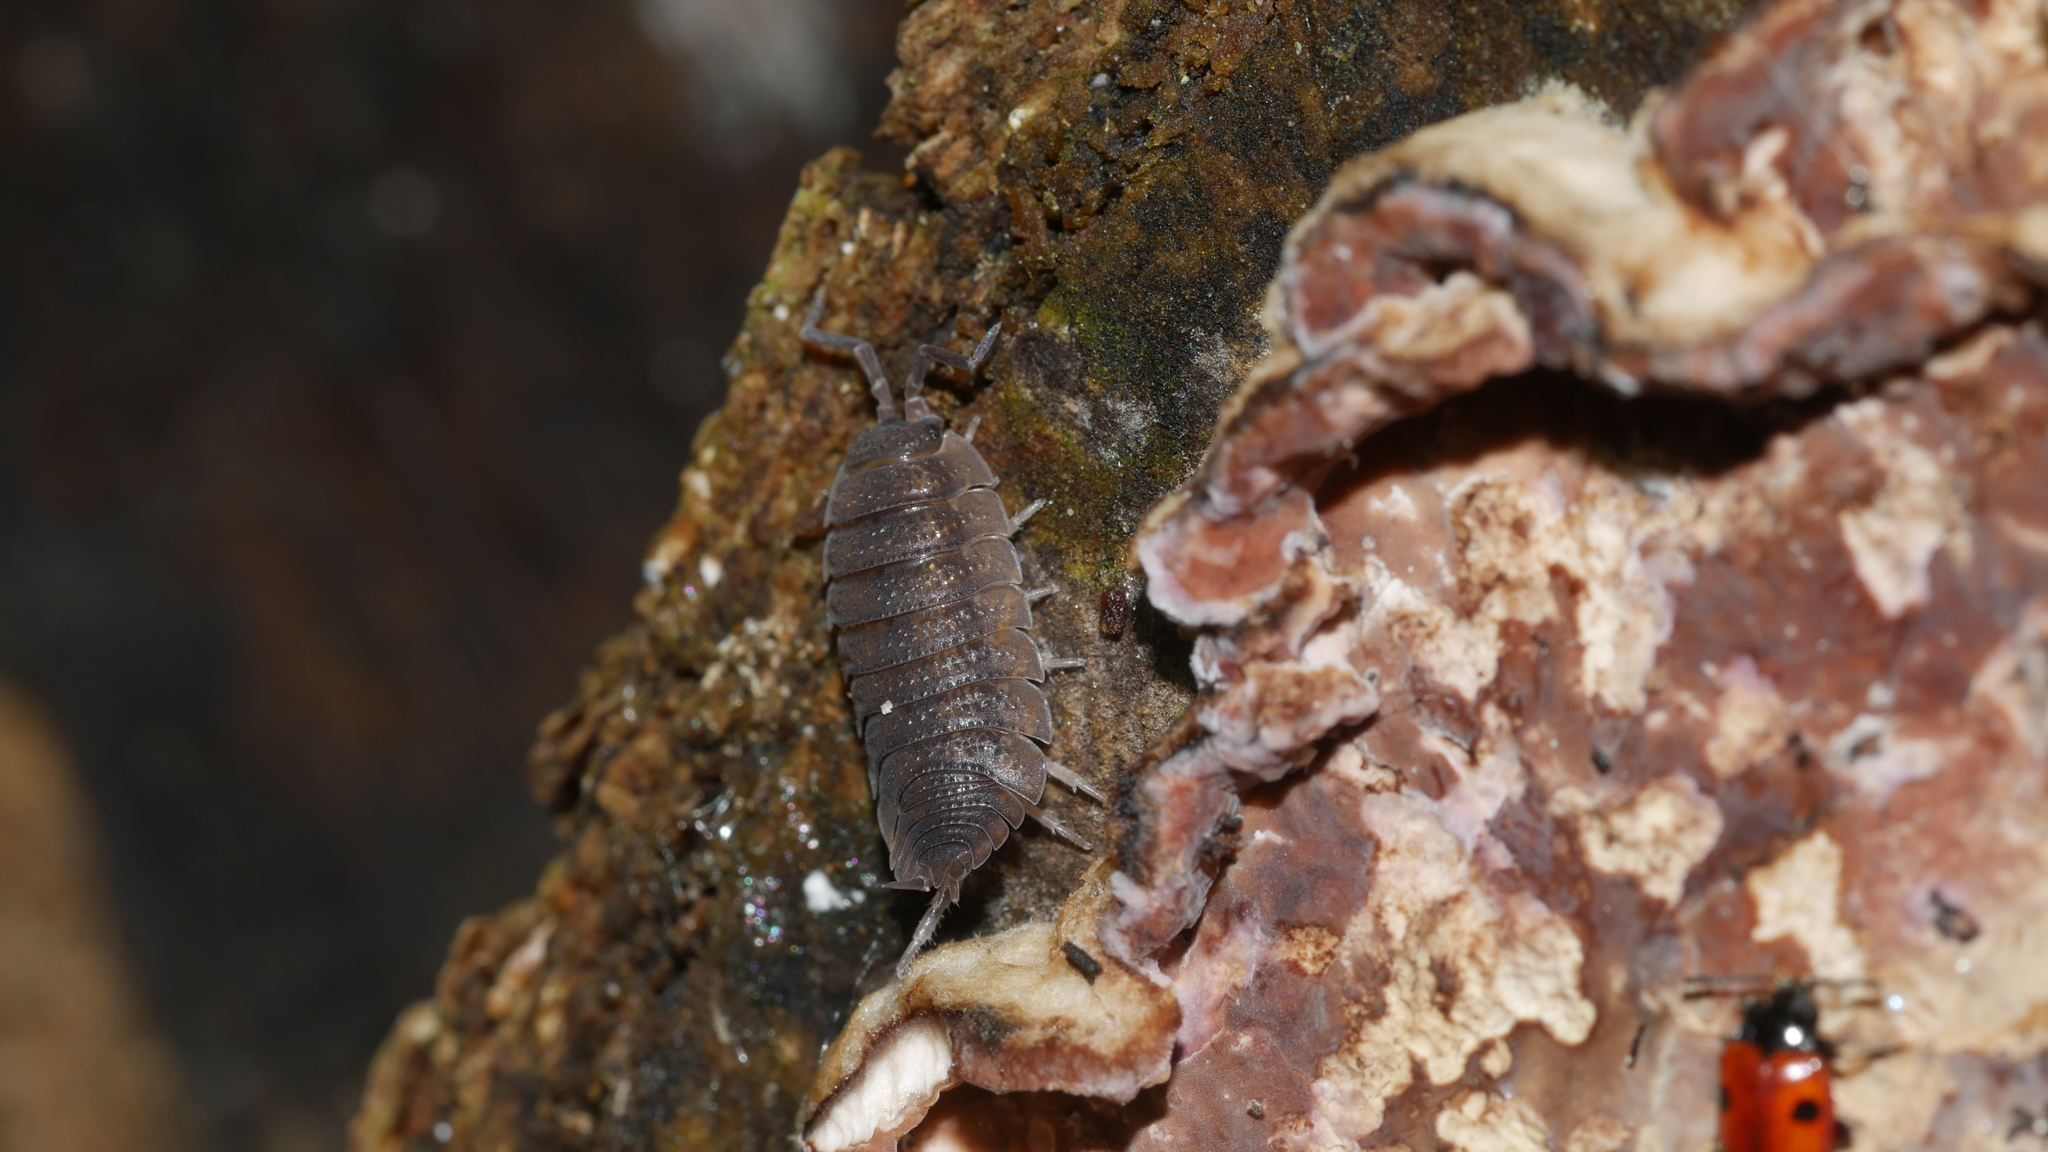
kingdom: Animalia
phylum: Arthropoda
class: Malacostraca
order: Isopoda
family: Porcellionidae
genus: Porcellio
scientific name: Porcellio scaber
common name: Common rough woodlouse
